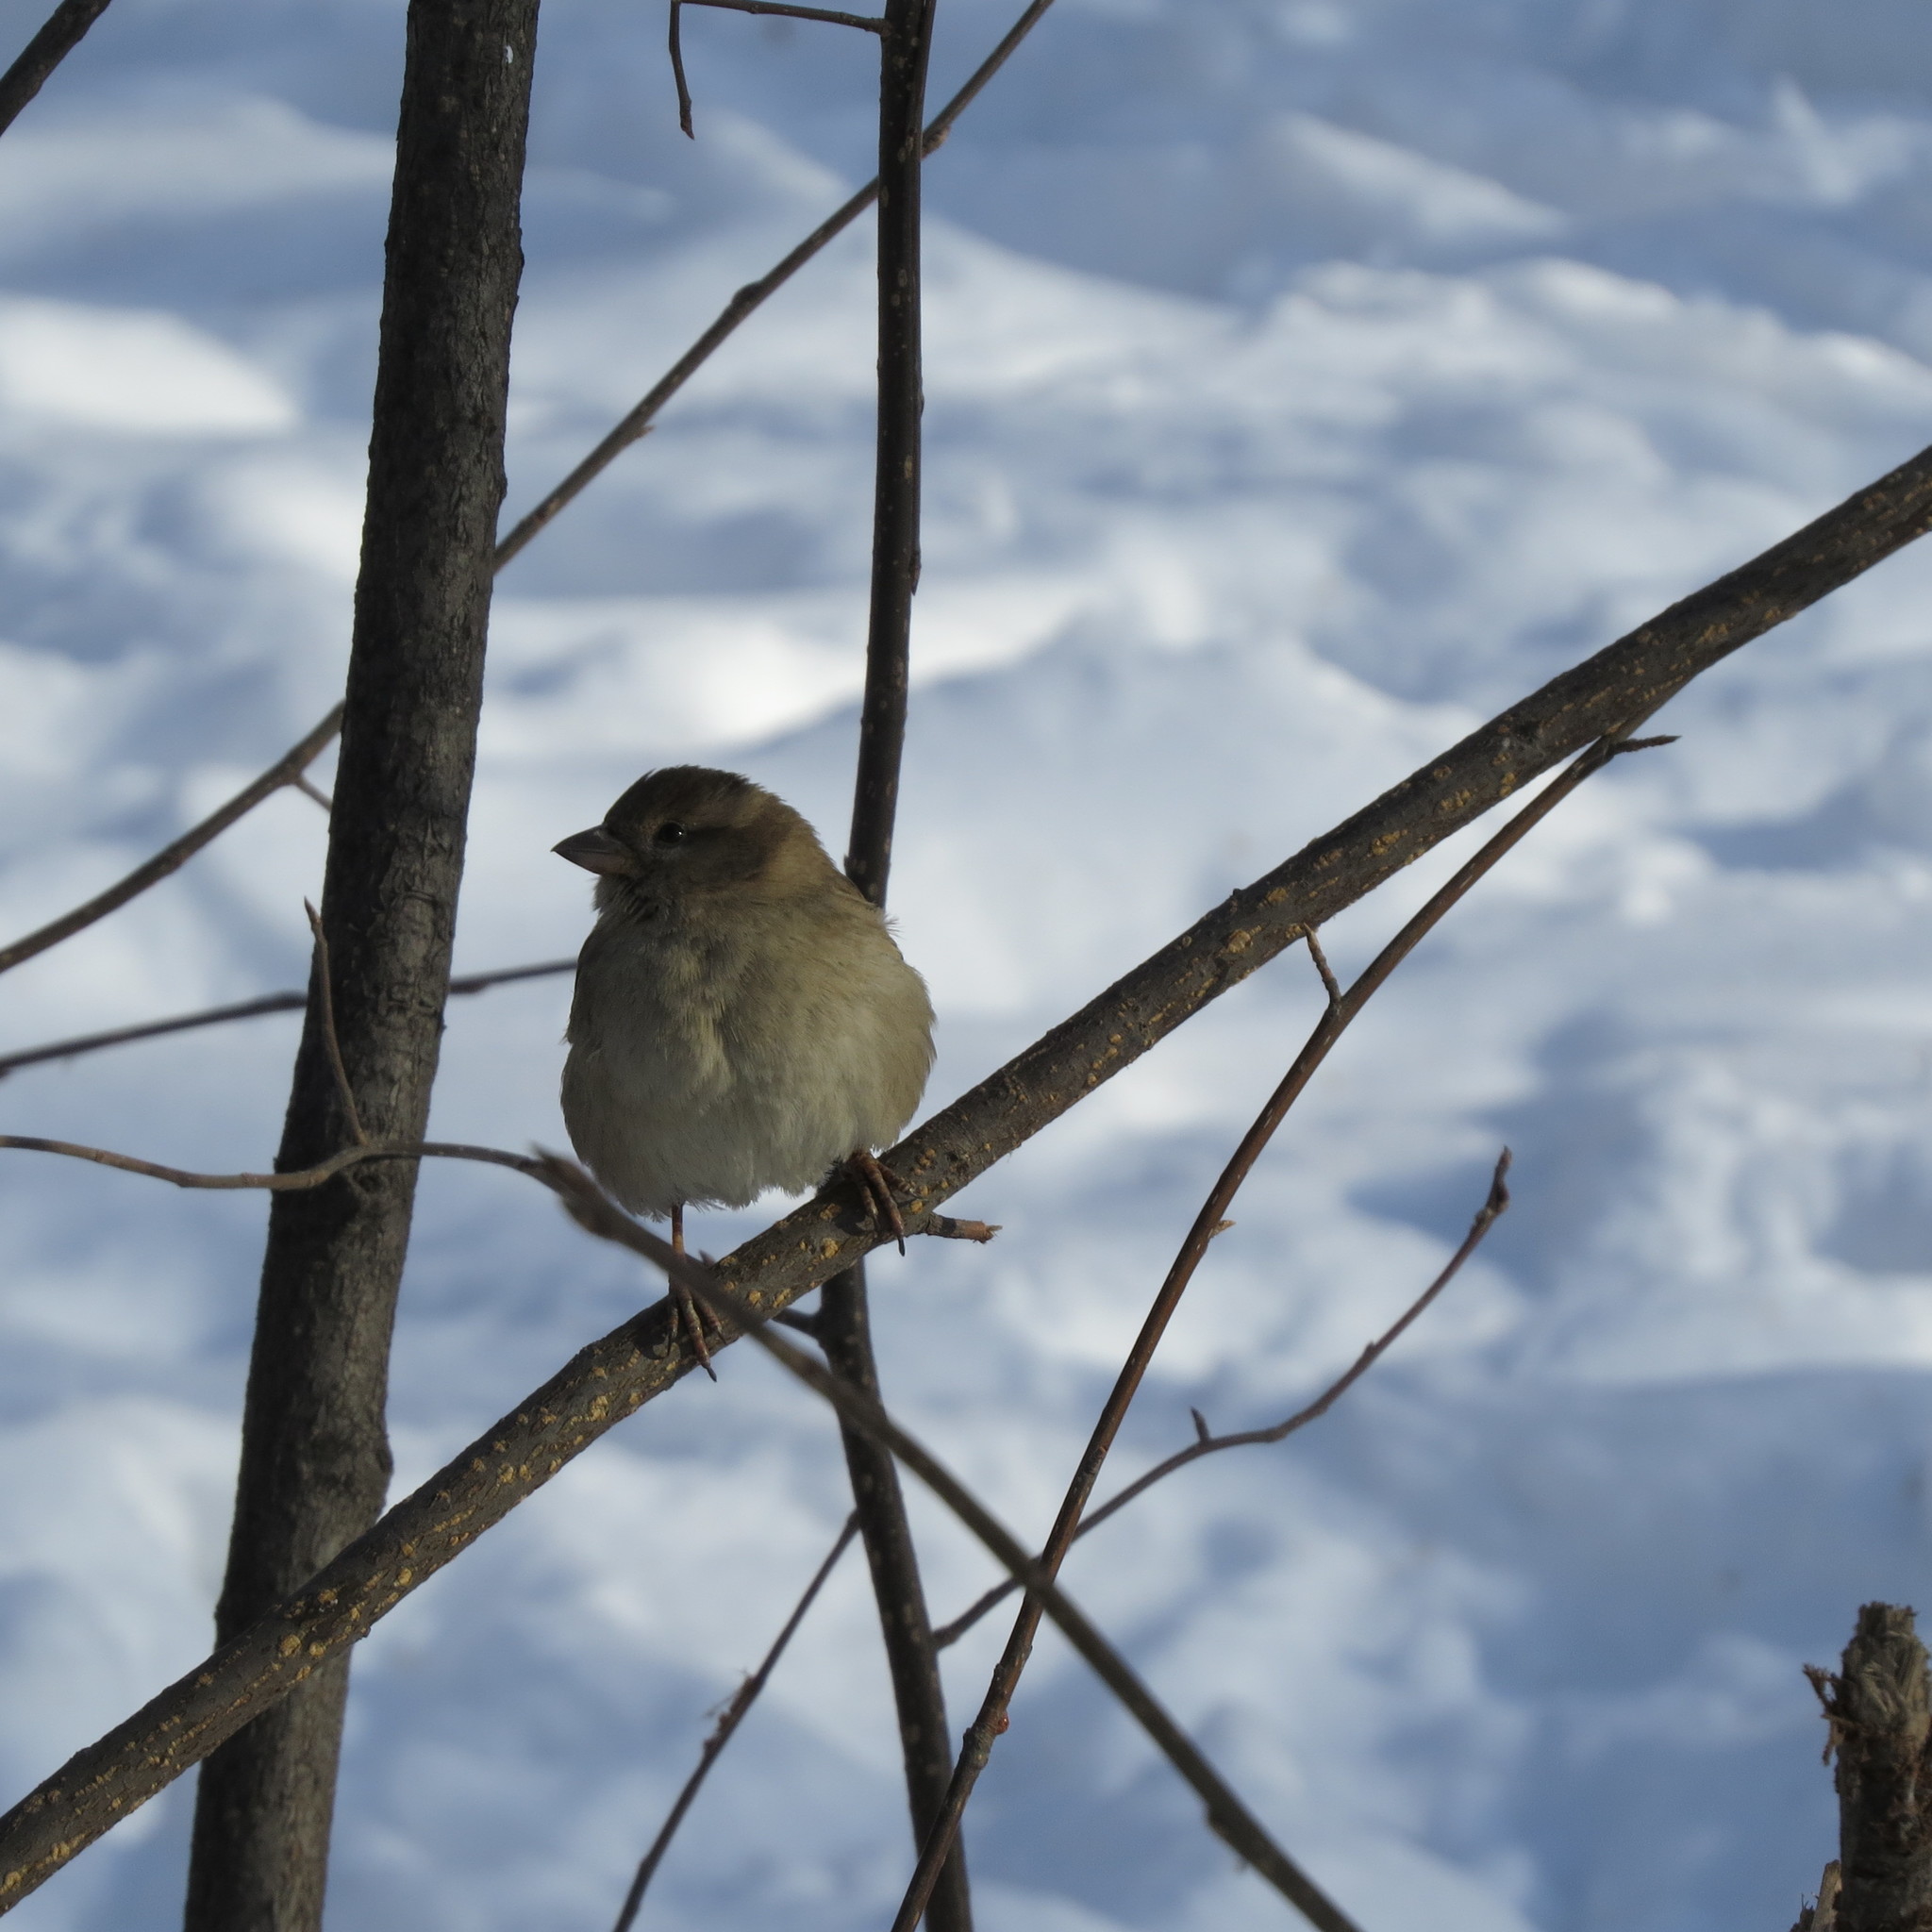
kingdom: Animalia
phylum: Chordata
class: Aves
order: Passeriformes
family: Passeridae
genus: Passer
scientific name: Passer domesticus
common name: House sparrow
